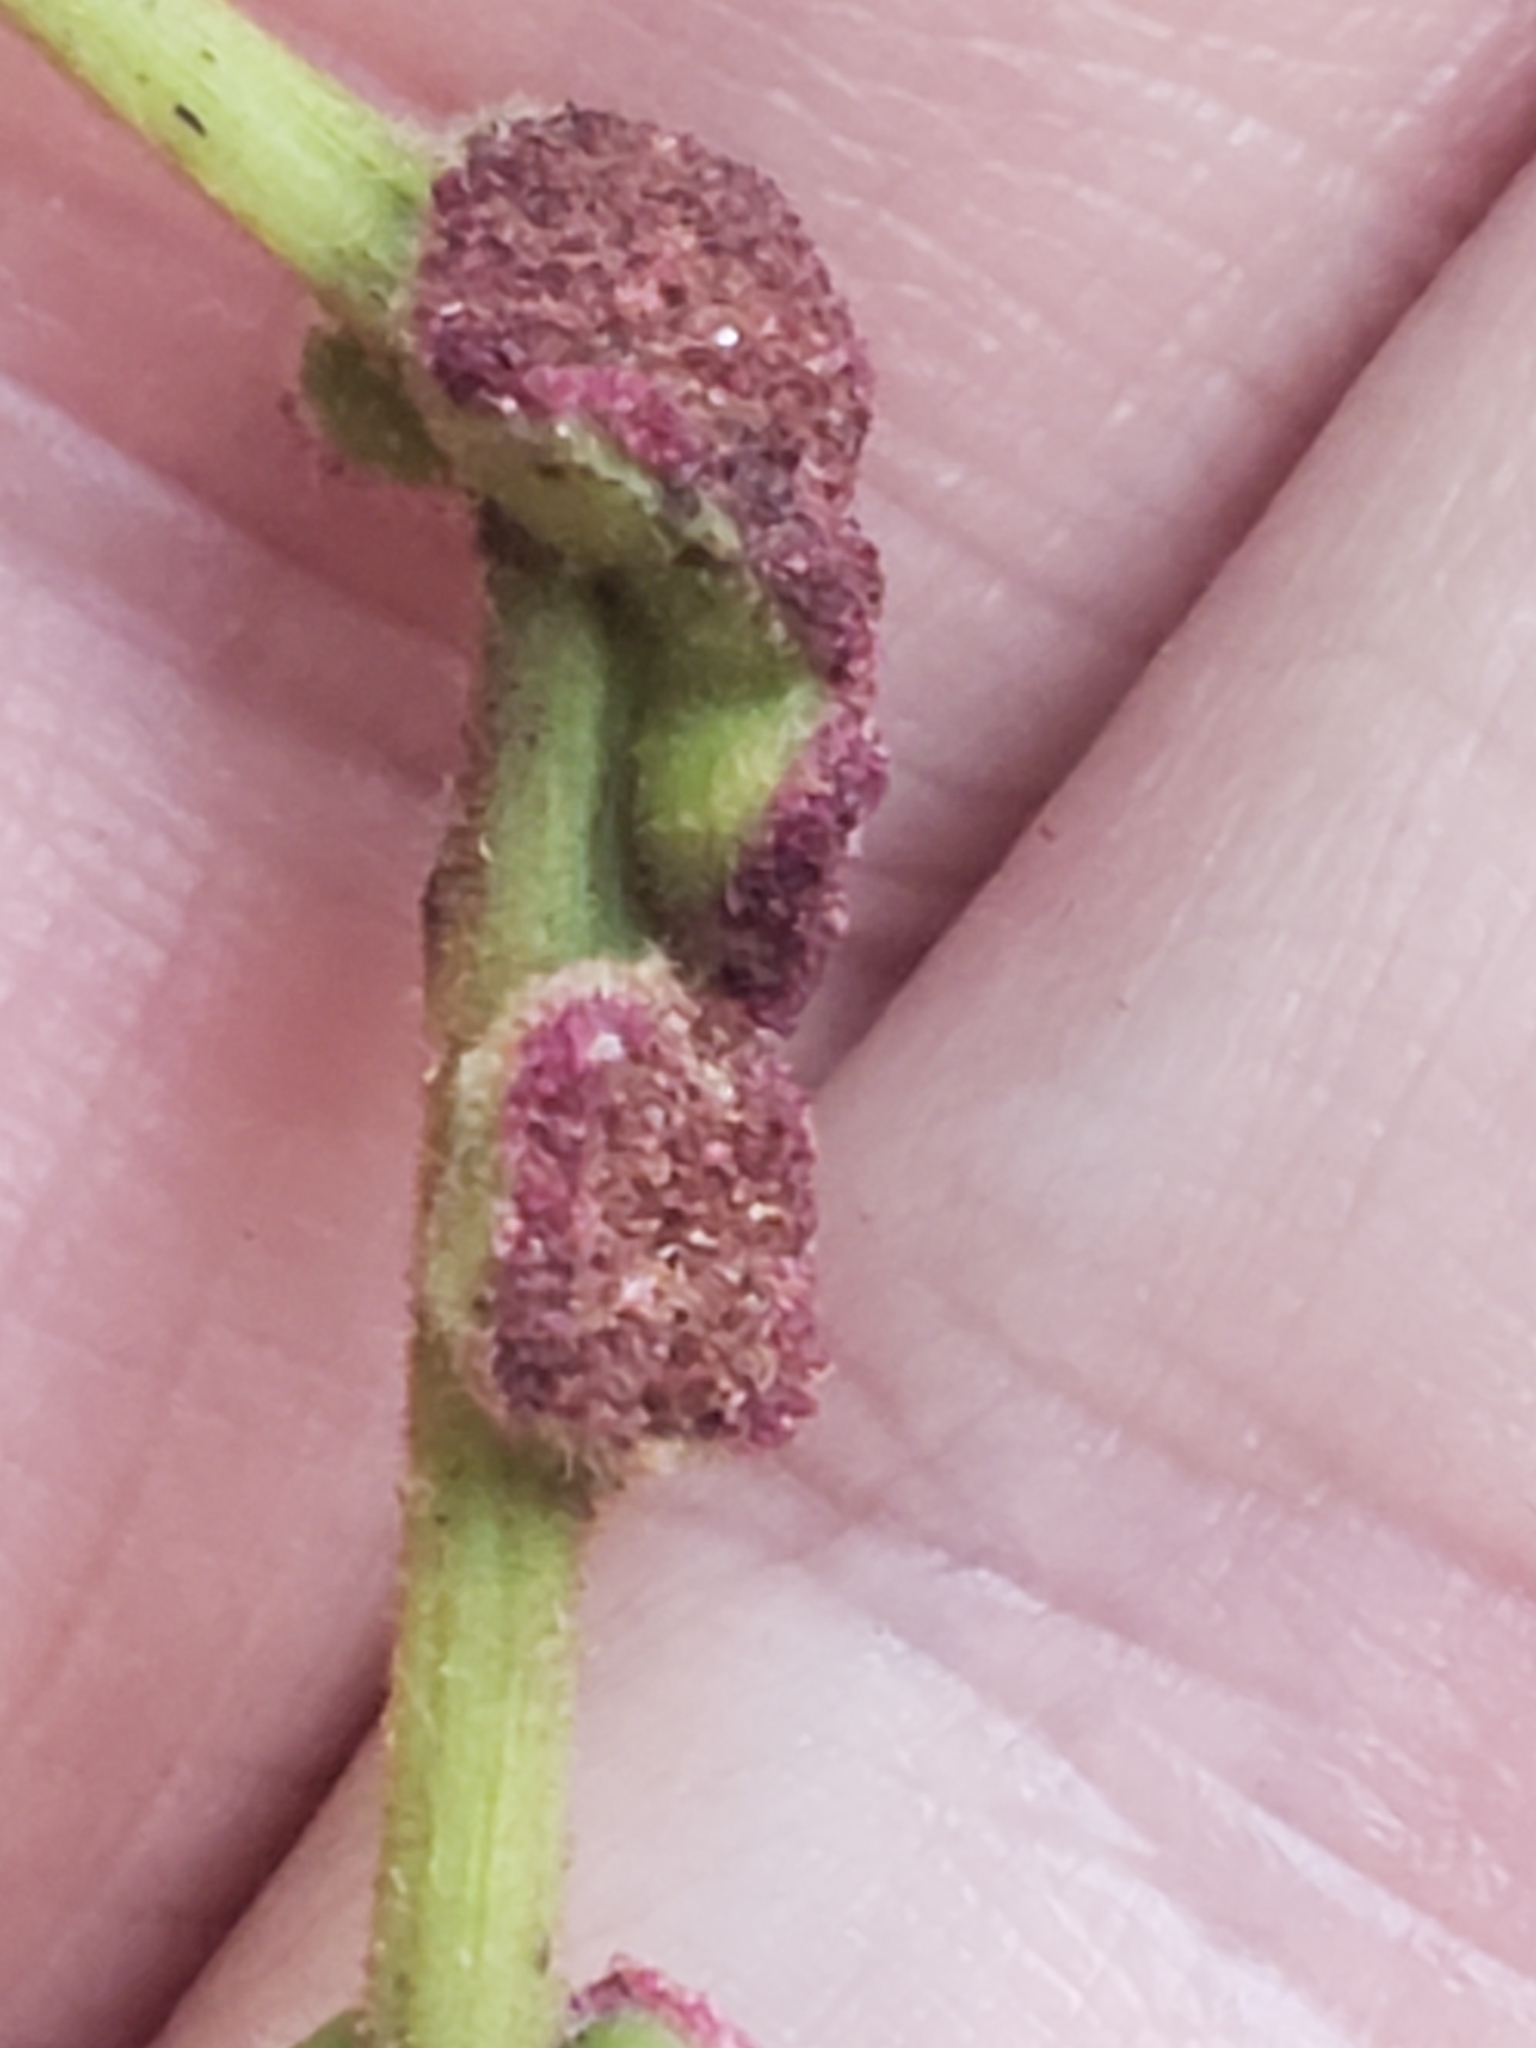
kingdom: Animalia
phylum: Arthropoda
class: Arachnida
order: Trombidiformes
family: Eriophyidae
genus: Aceria
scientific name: Aceria
